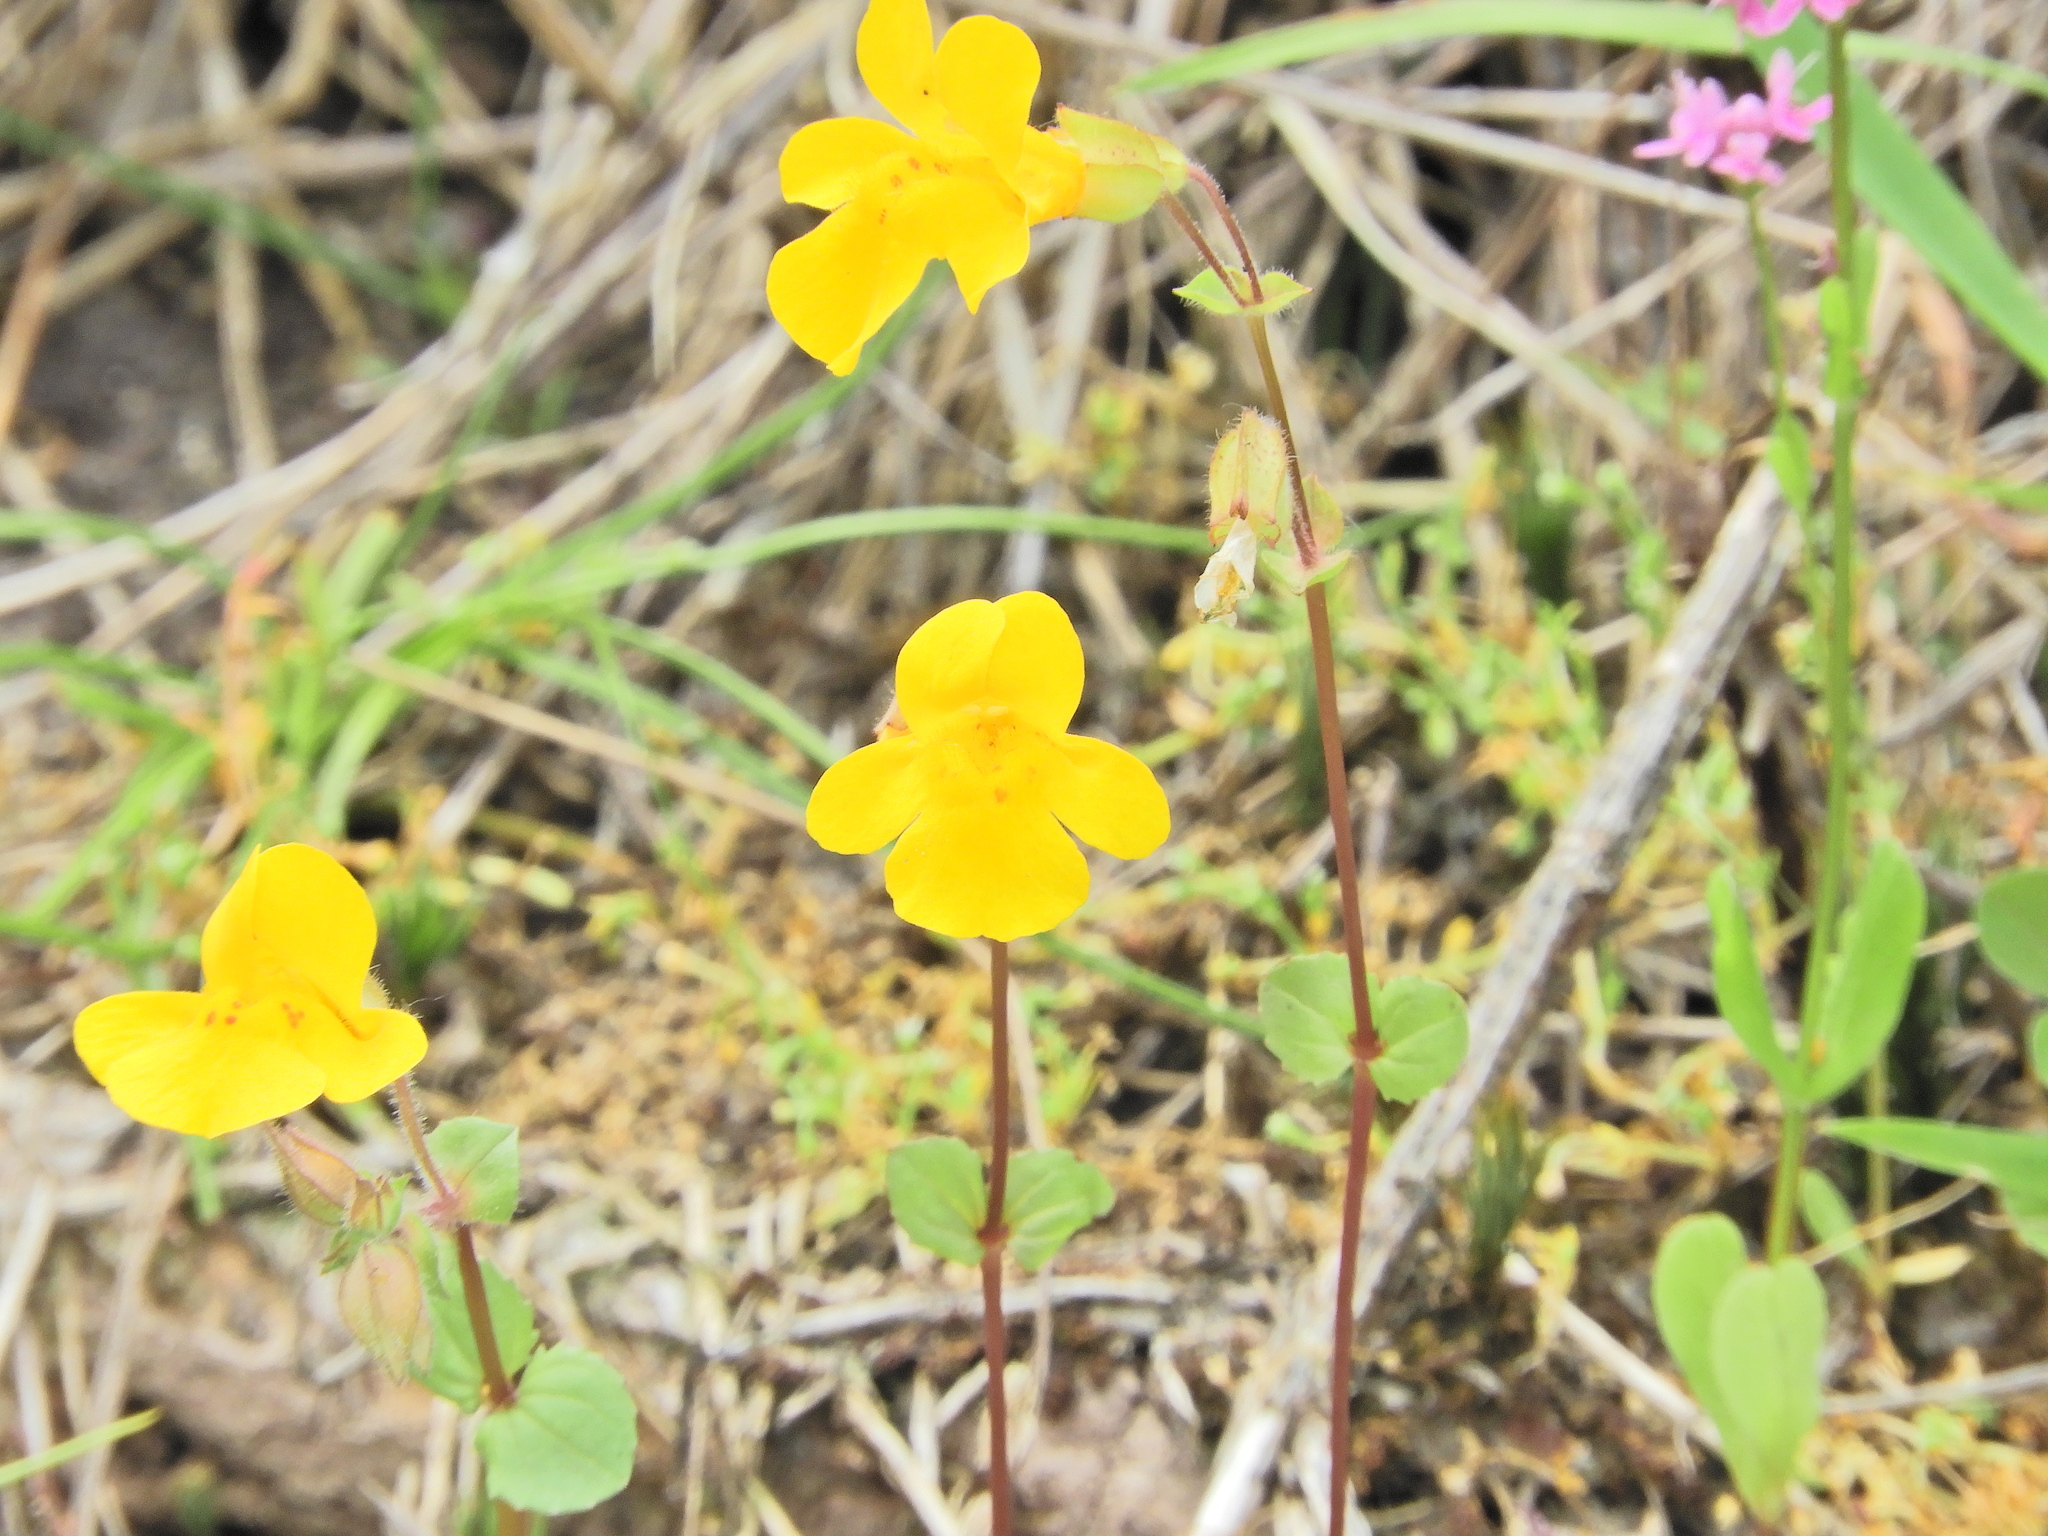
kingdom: Plantae
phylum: Tracheophyta
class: Magnoliopsida
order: Lamiales
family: Phrymaceae
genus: Erythranthe
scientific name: Erythranthe guttata
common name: Monkeyflower
